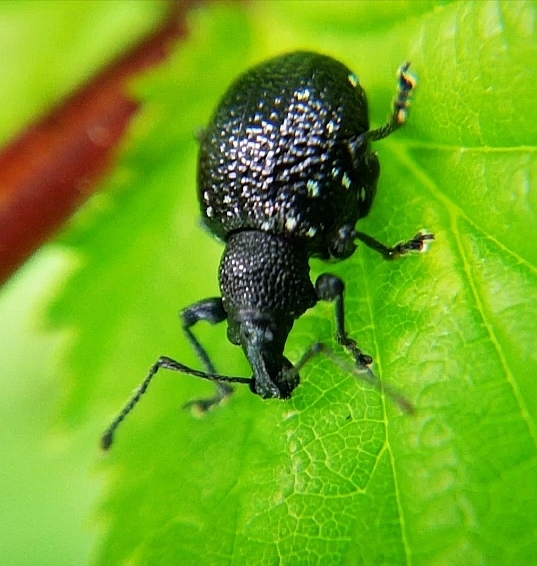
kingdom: Animalia
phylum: Arthropoda
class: Insecta
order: Coleoptera
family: Curculionidae
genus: Otiorhynchus
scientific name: Otiorhynchus gemmatus
